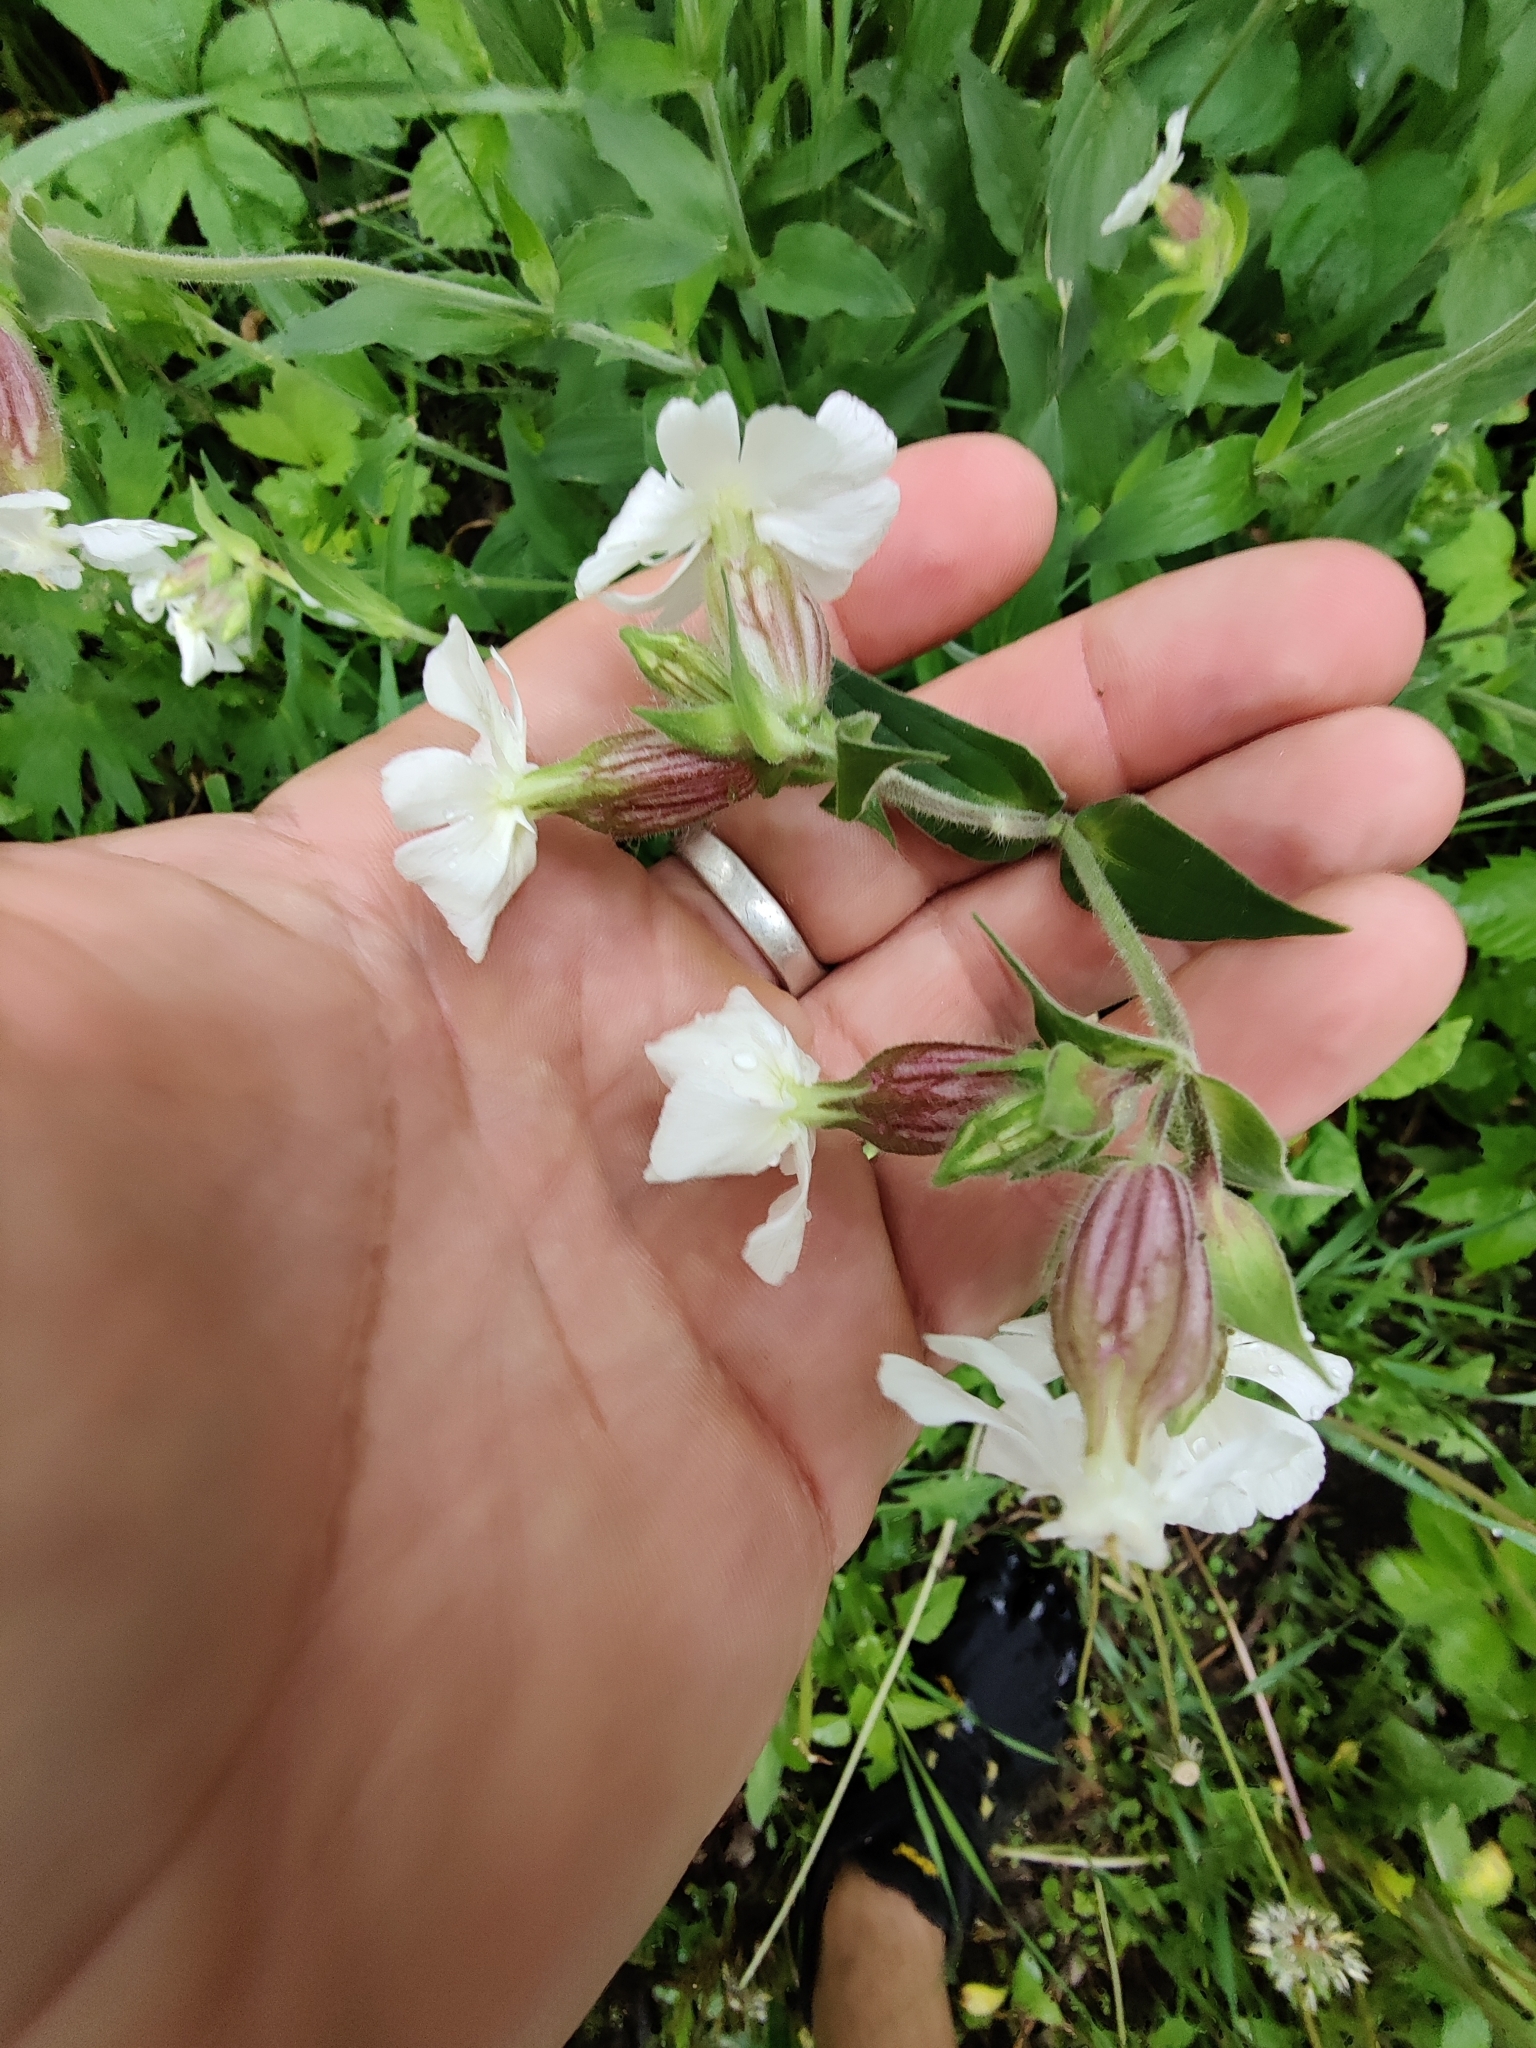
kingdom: Plantae
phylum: Tracheophyta
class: Magnoliopsida
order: Caryophyllales
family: Caryophyllaceae
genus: Silene
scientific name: Silene latifolia
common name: White campion
